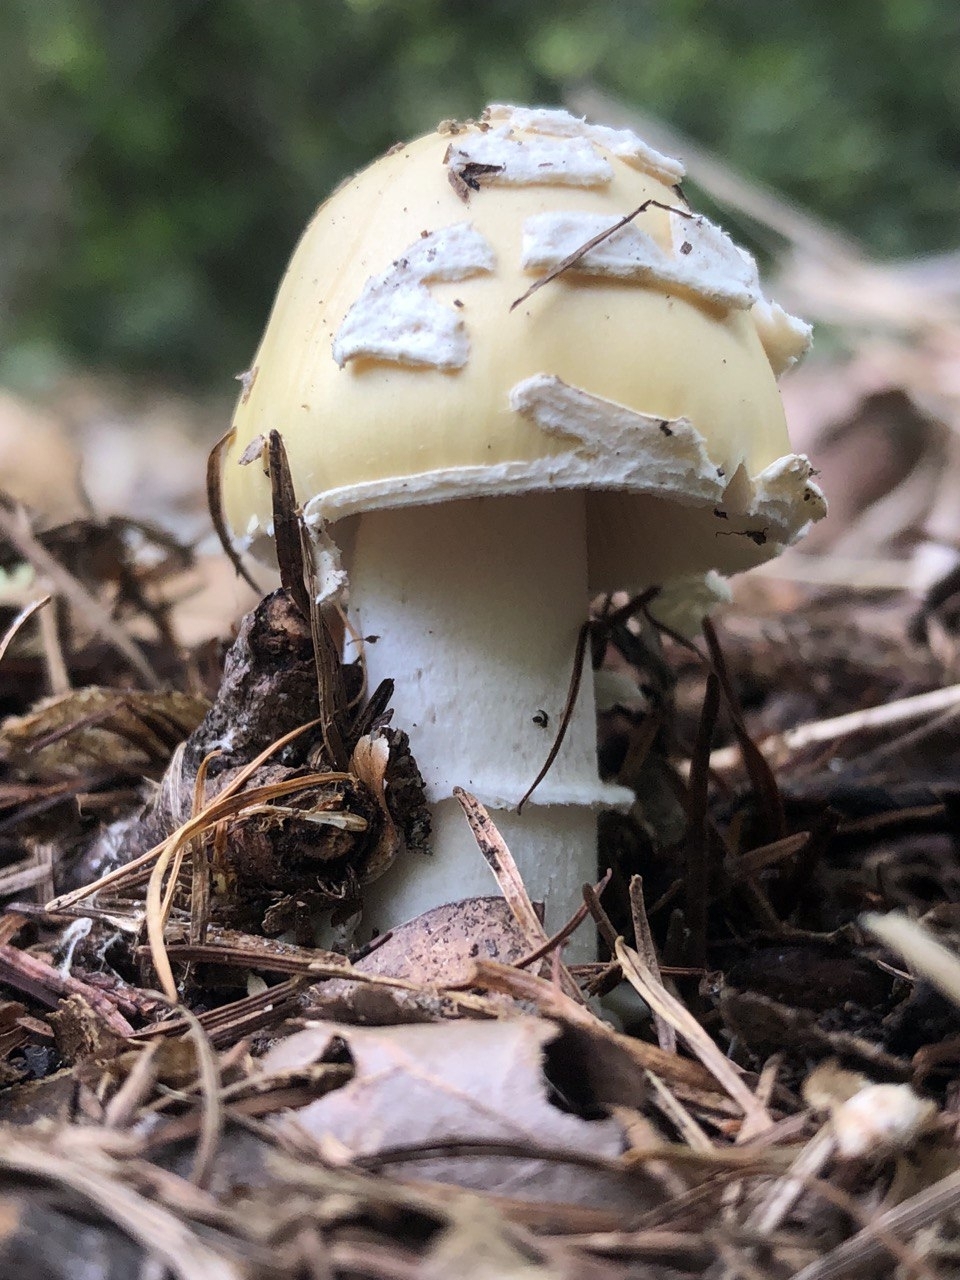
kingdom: Fungi
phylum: Basidiomycota
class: Agaricomycetes
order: Agaricales
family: Amanitaceae
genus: Amanita
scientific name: Amanita gemmata
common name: Jewelled amanita
